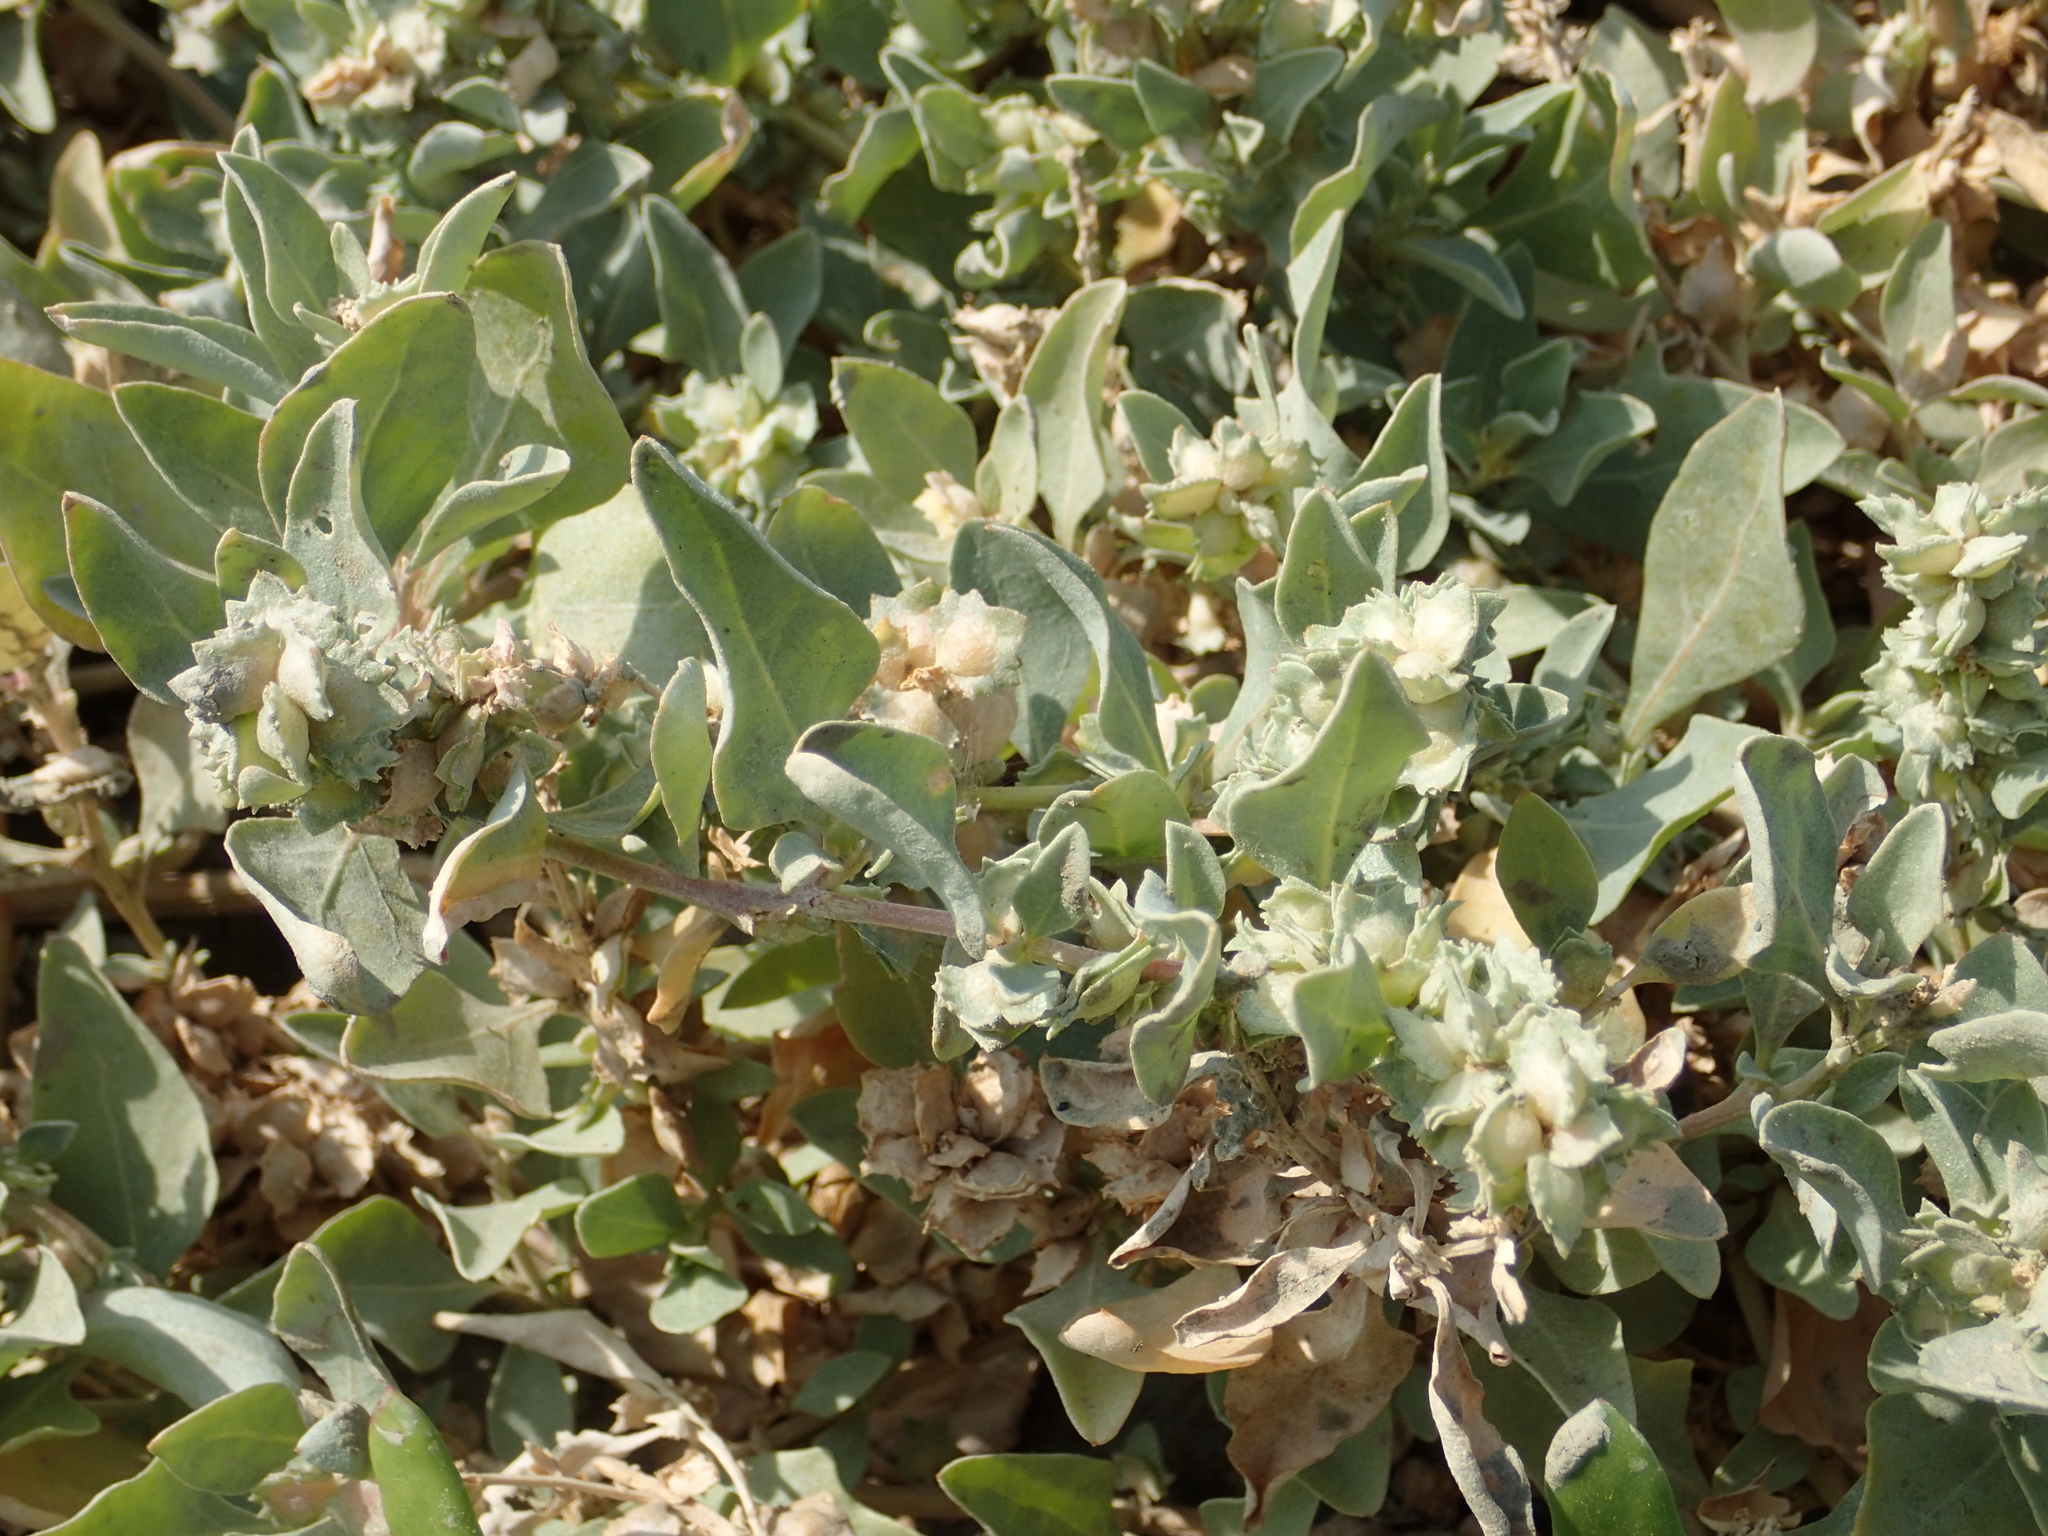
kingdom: Plantae
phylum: Tracheophyta
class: Magnoliopsida
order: Caryophyllales
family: Amaranthaceae
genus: Atriplex
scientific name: Atriplex maximowicziana
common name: Maximowicz's saltbush
